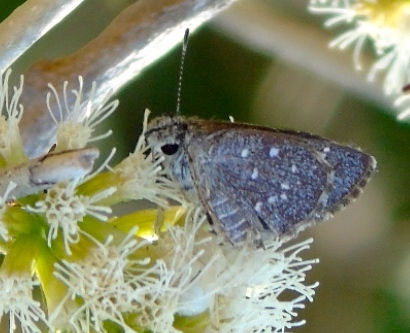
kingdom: Animalia
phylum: Arthropoda
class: Insecta
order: Lepidoptera
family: Hesperiidae
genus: Mastor
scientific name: Mastor aenus
